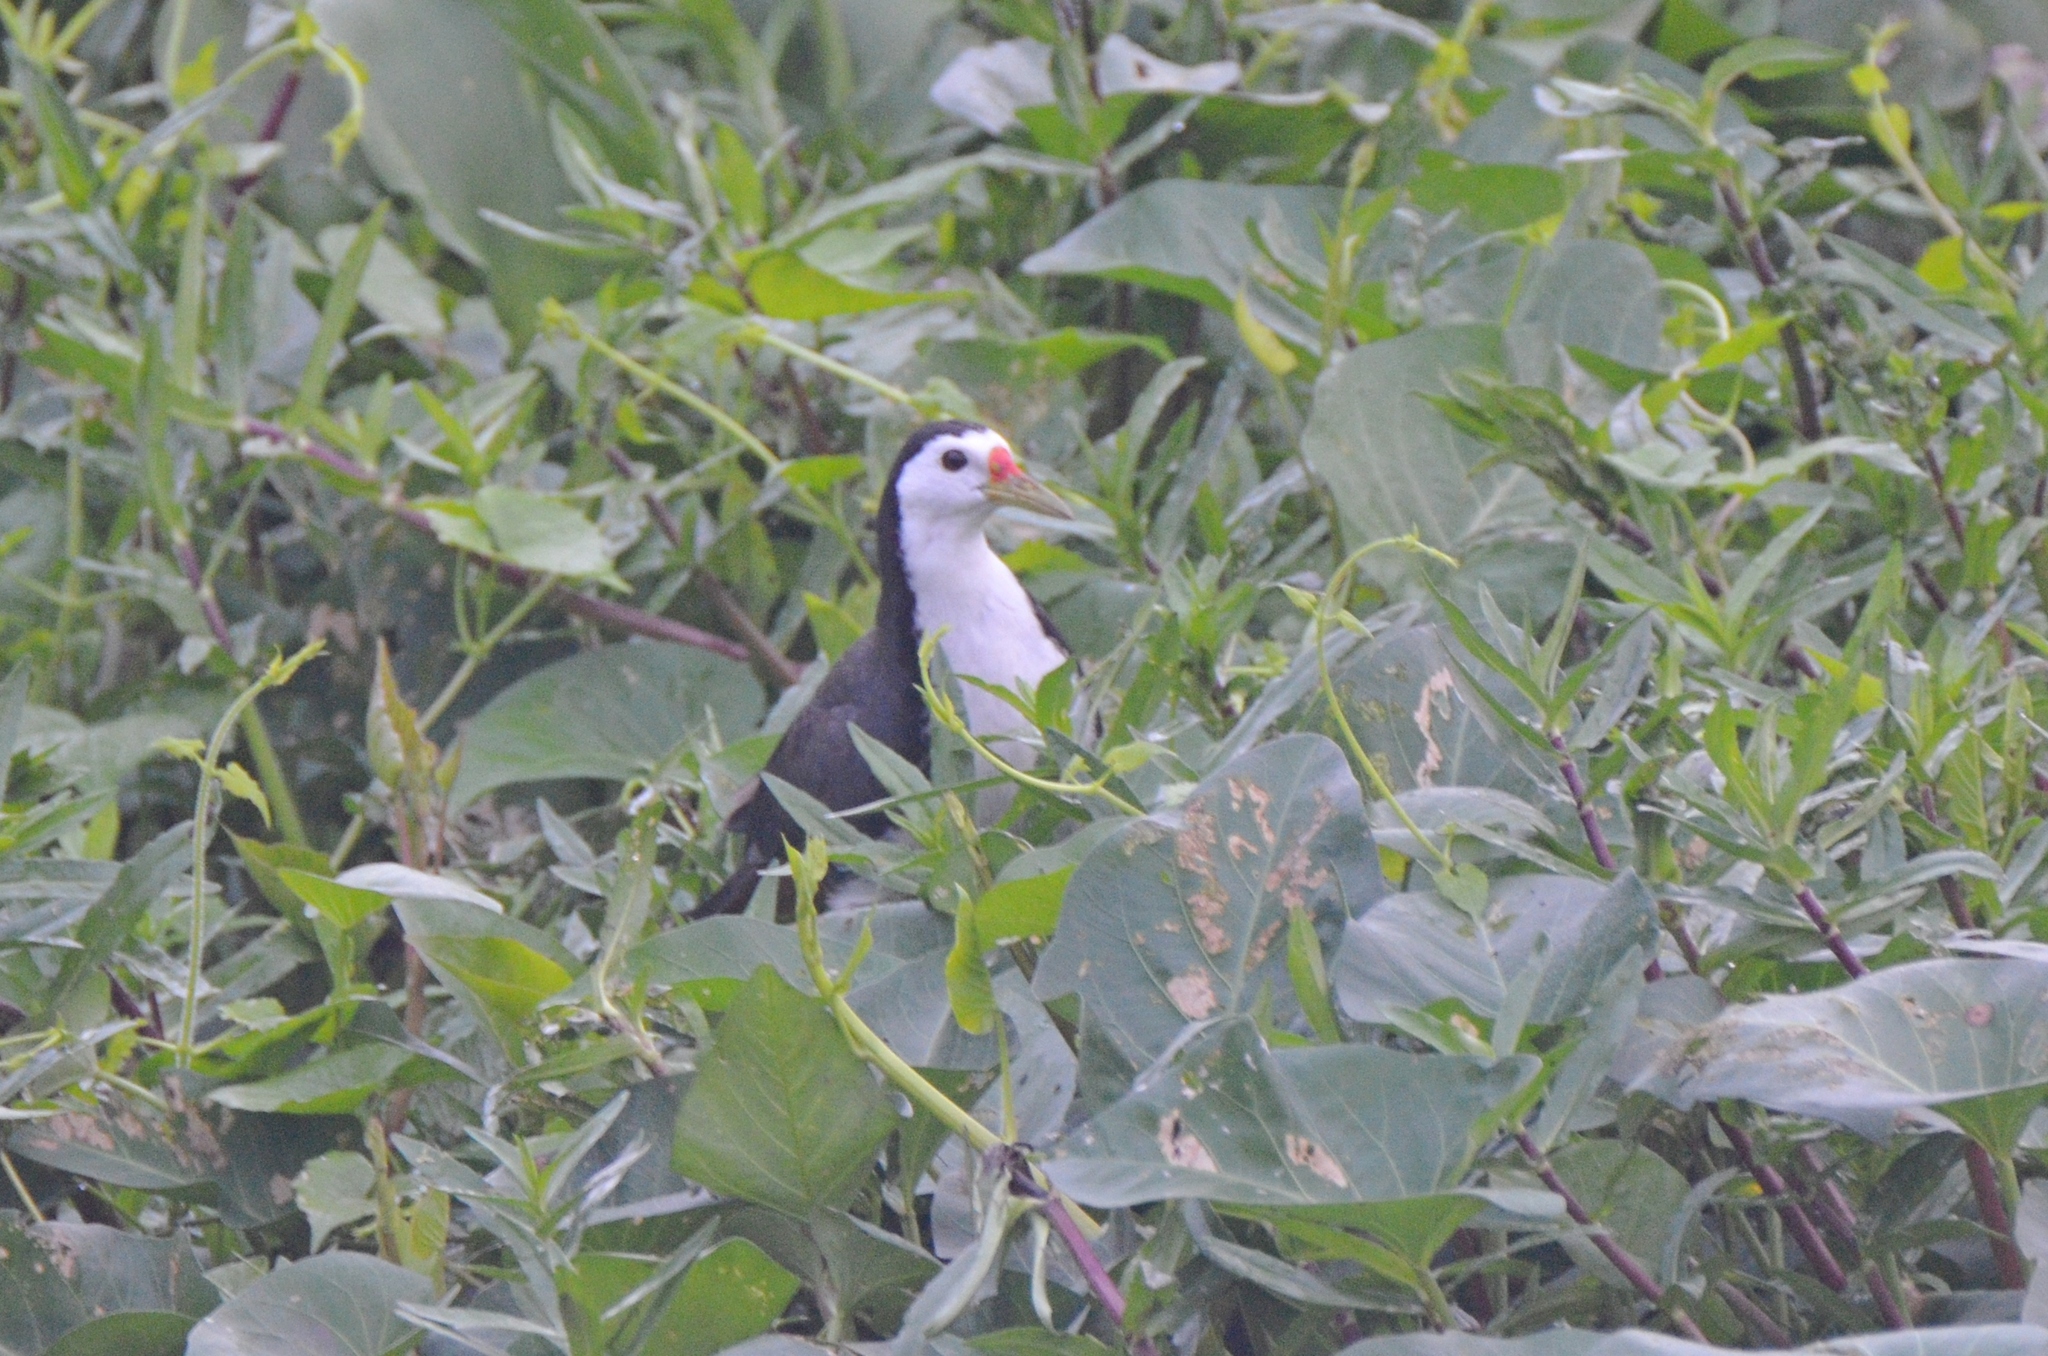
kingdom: Animalia
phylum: Chordata
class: Aves
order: Gruiformes
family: Rallidae
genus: Amaurornis
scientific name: Amaurornis phoenicurus
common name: White-breasted waterhen
